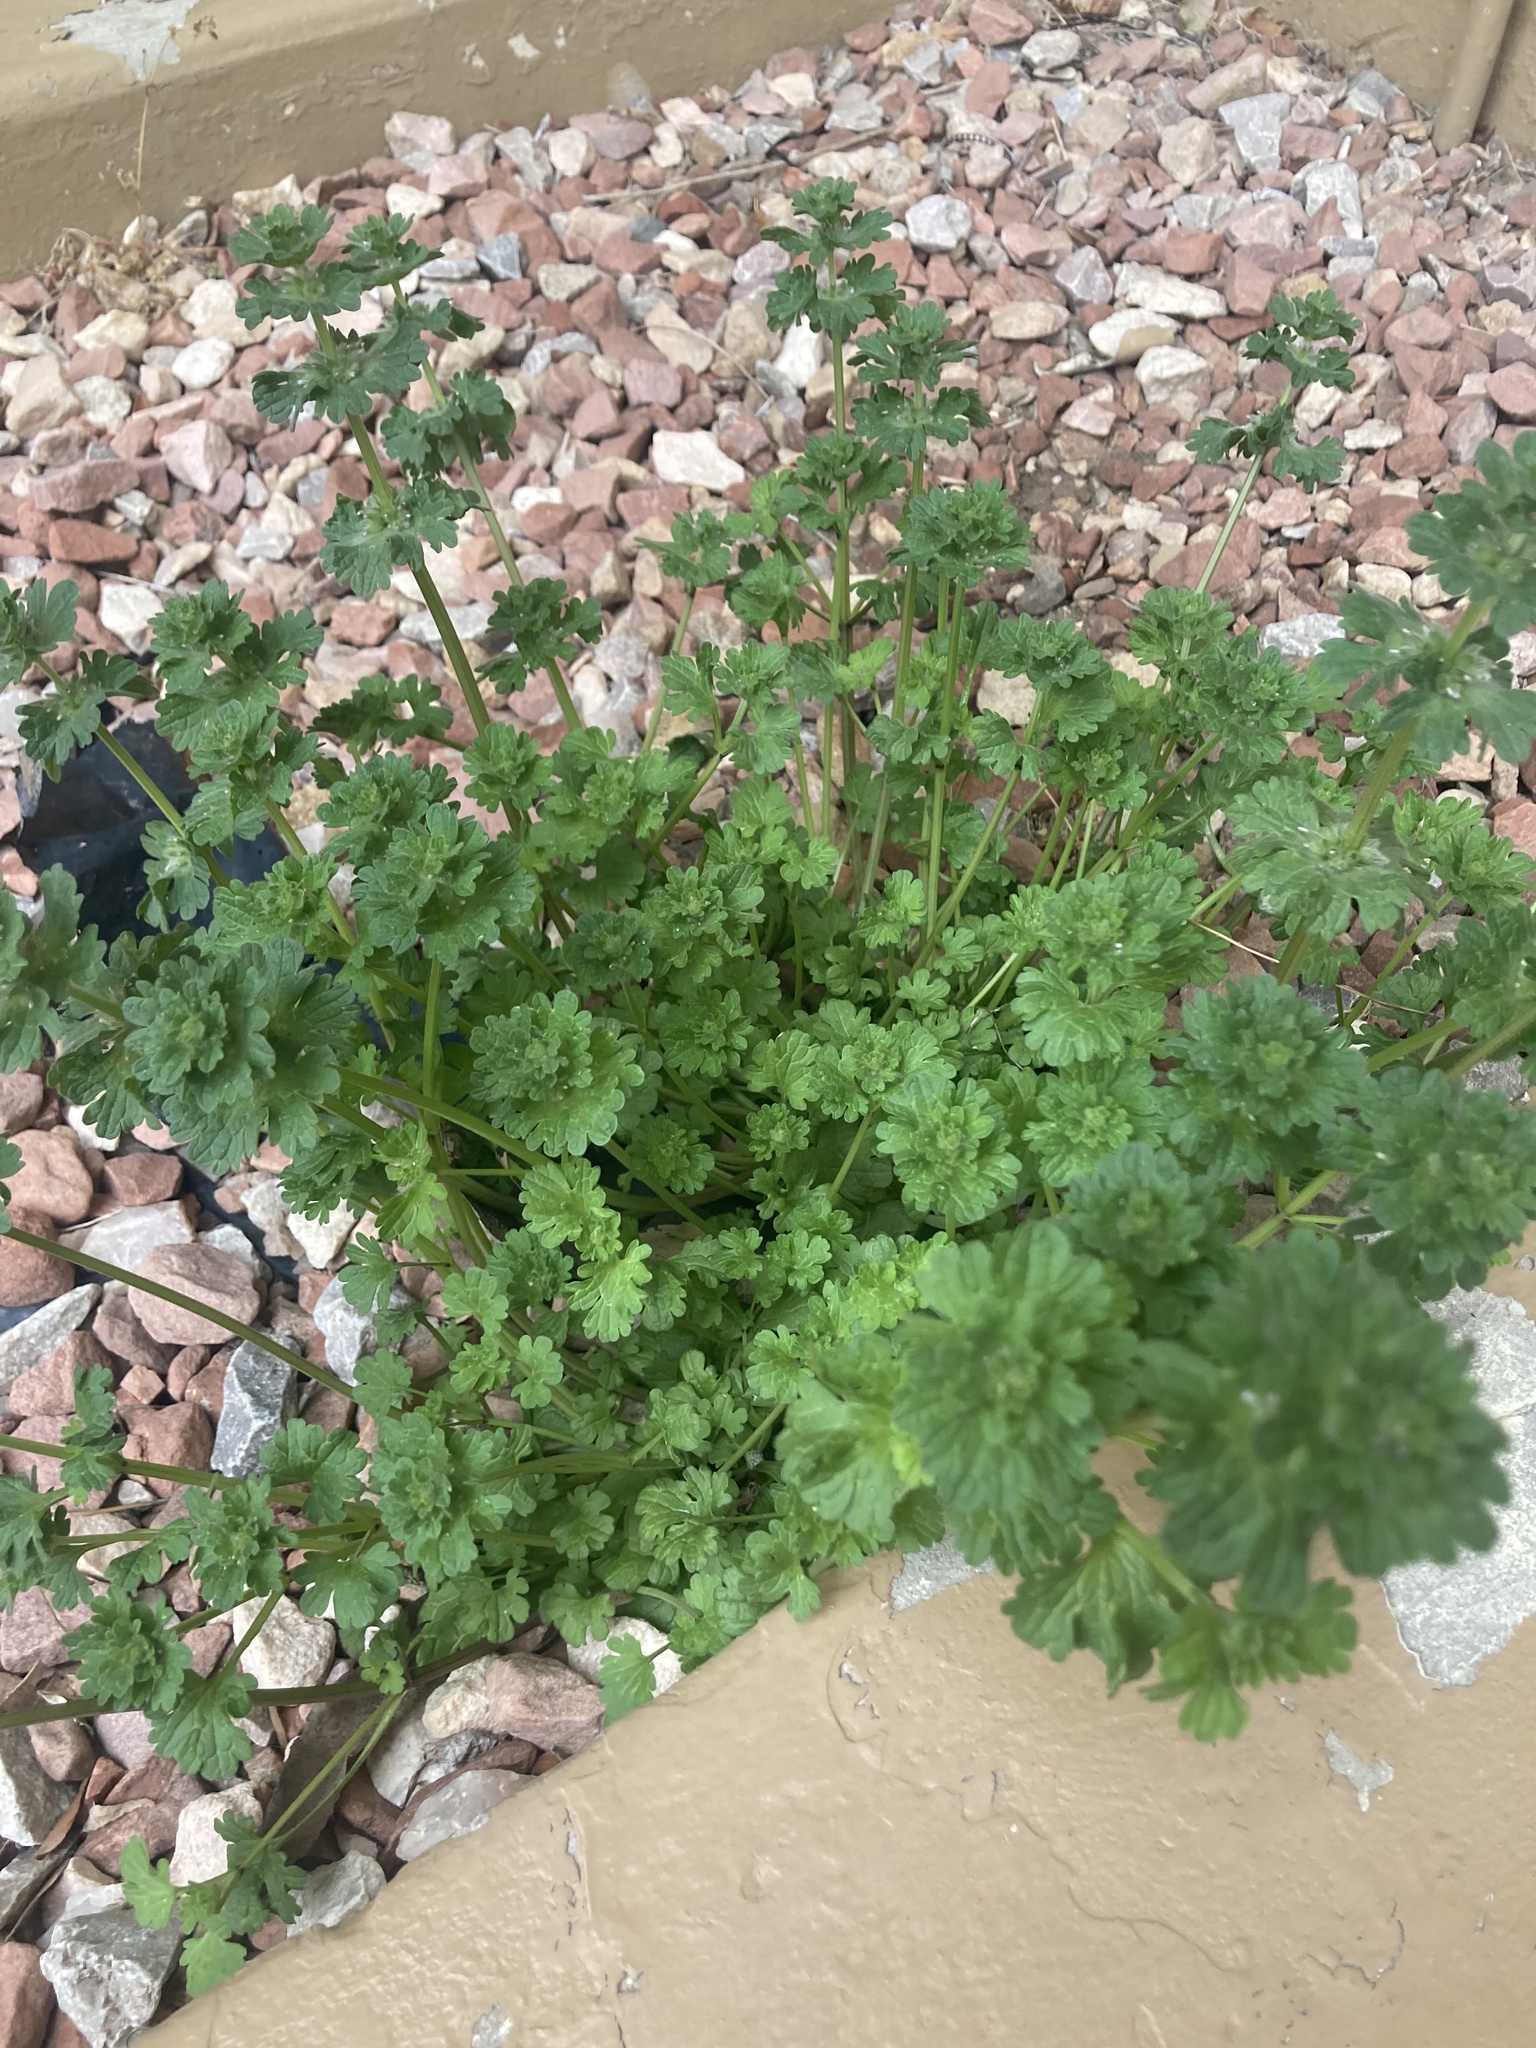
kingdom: Plantae
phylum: Tracheophyta
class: Magnoliopsida
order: Lamiales
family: Lamiaceae
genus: Lamium
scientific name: Lamium amplexicaule
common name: Henbit dead-nettle
